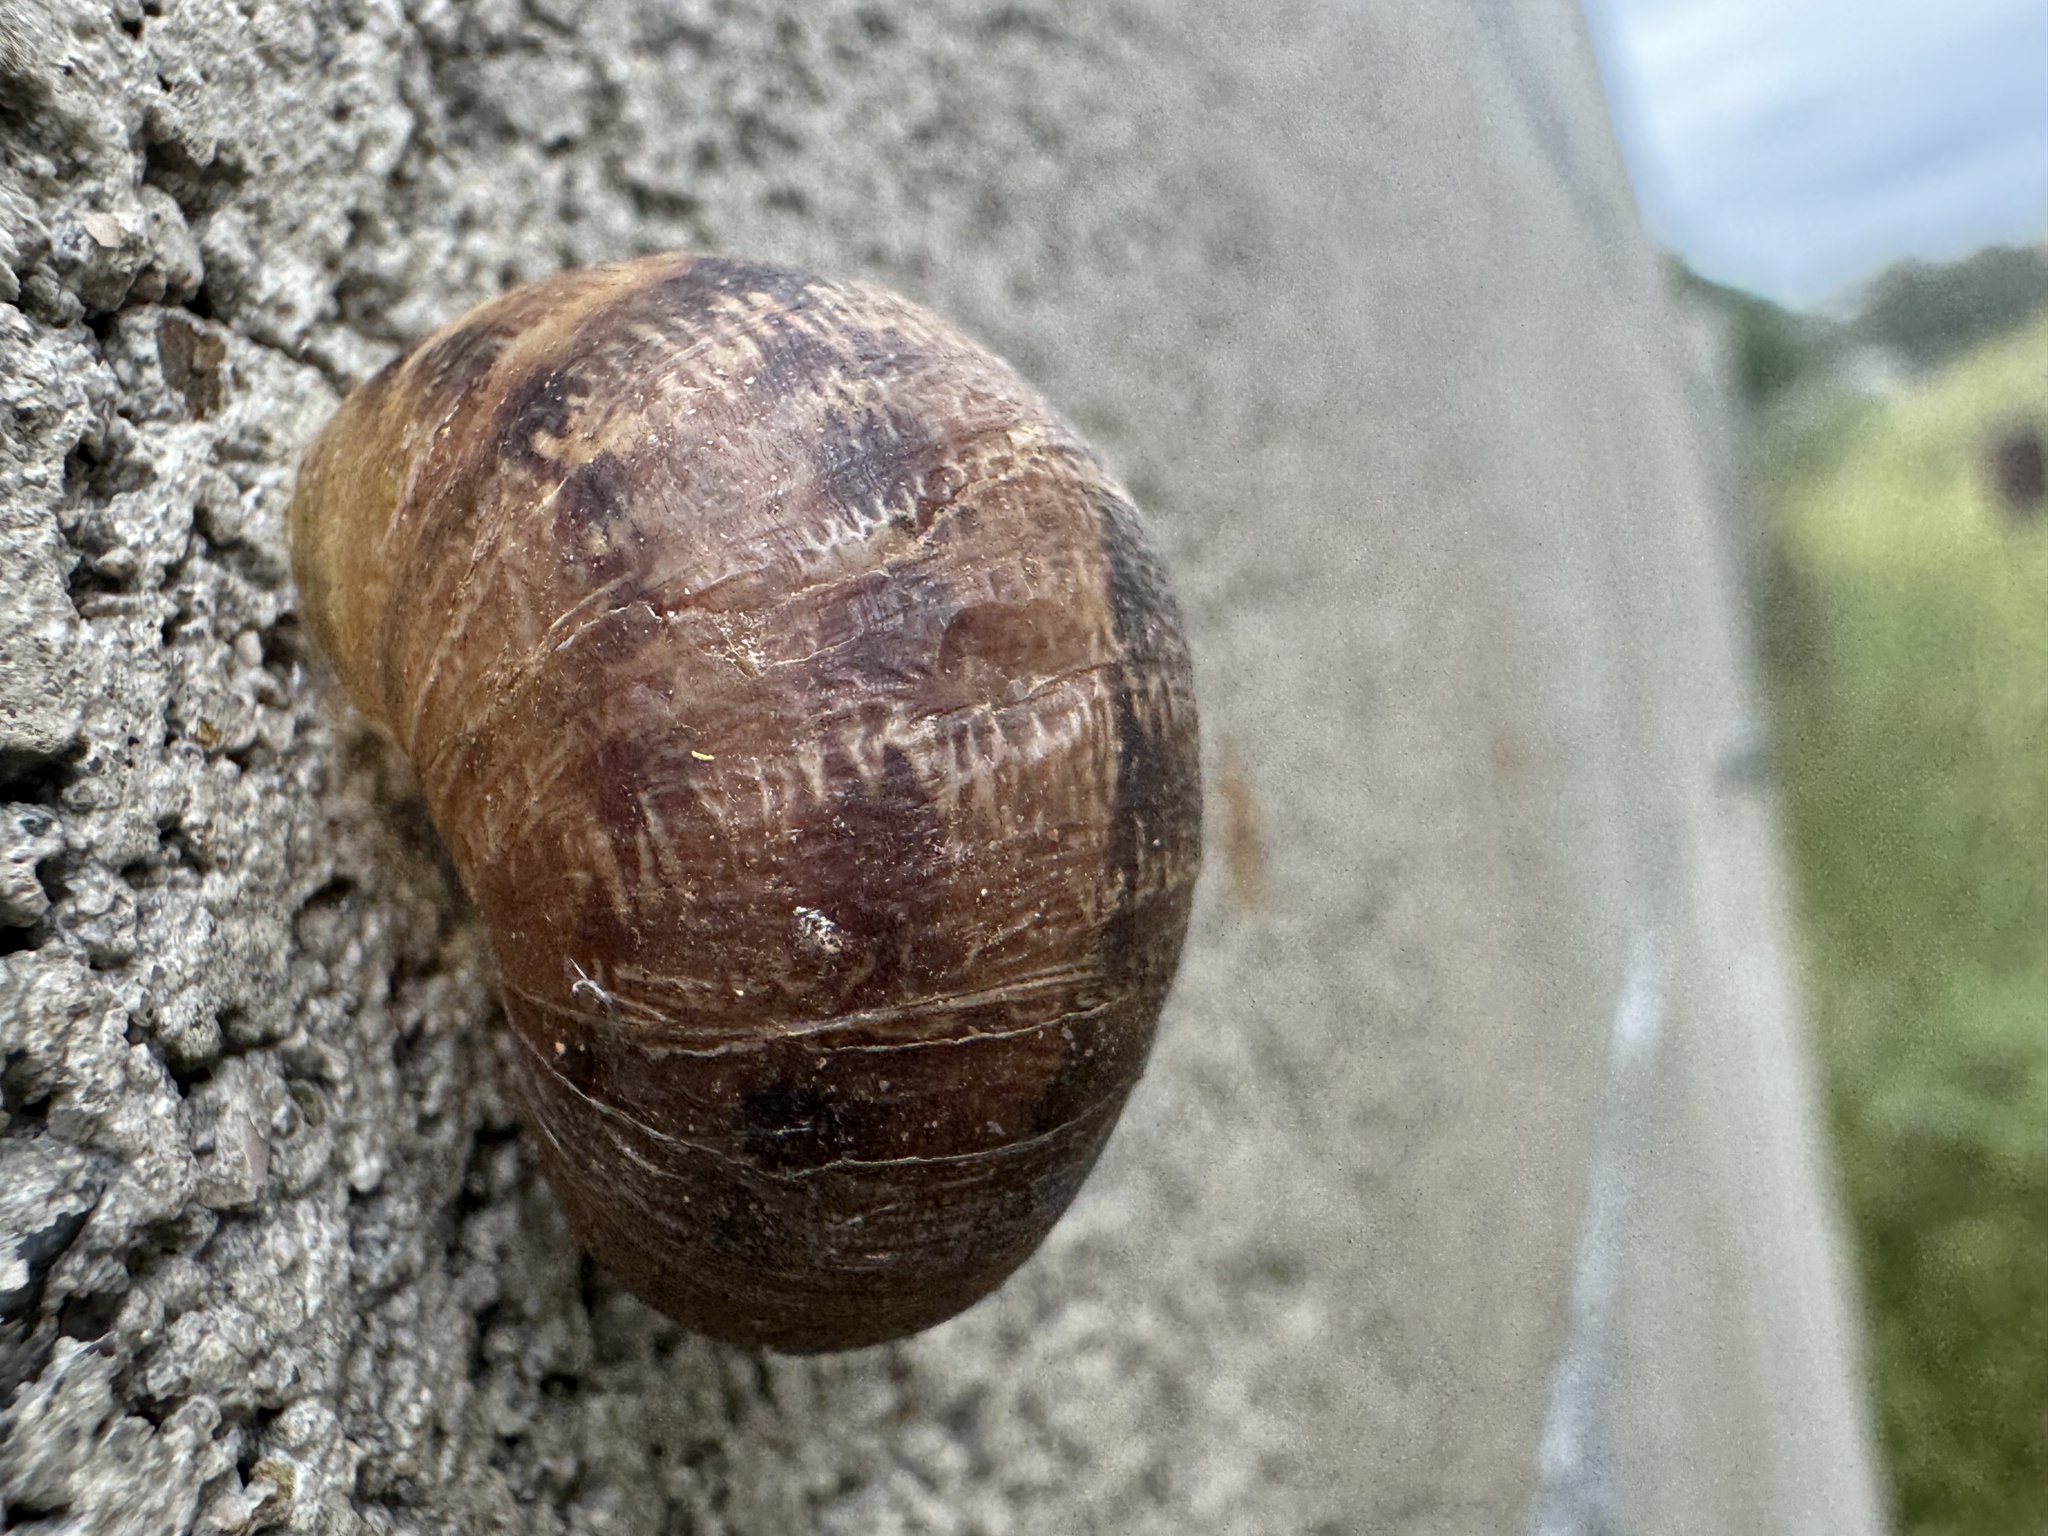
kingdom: Animalia
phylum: Mollusca
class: Gastropoda
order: Stylommatophora
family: Helicidae
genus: Cornu
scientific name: Cornu aspersum
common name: Brown garden snail
